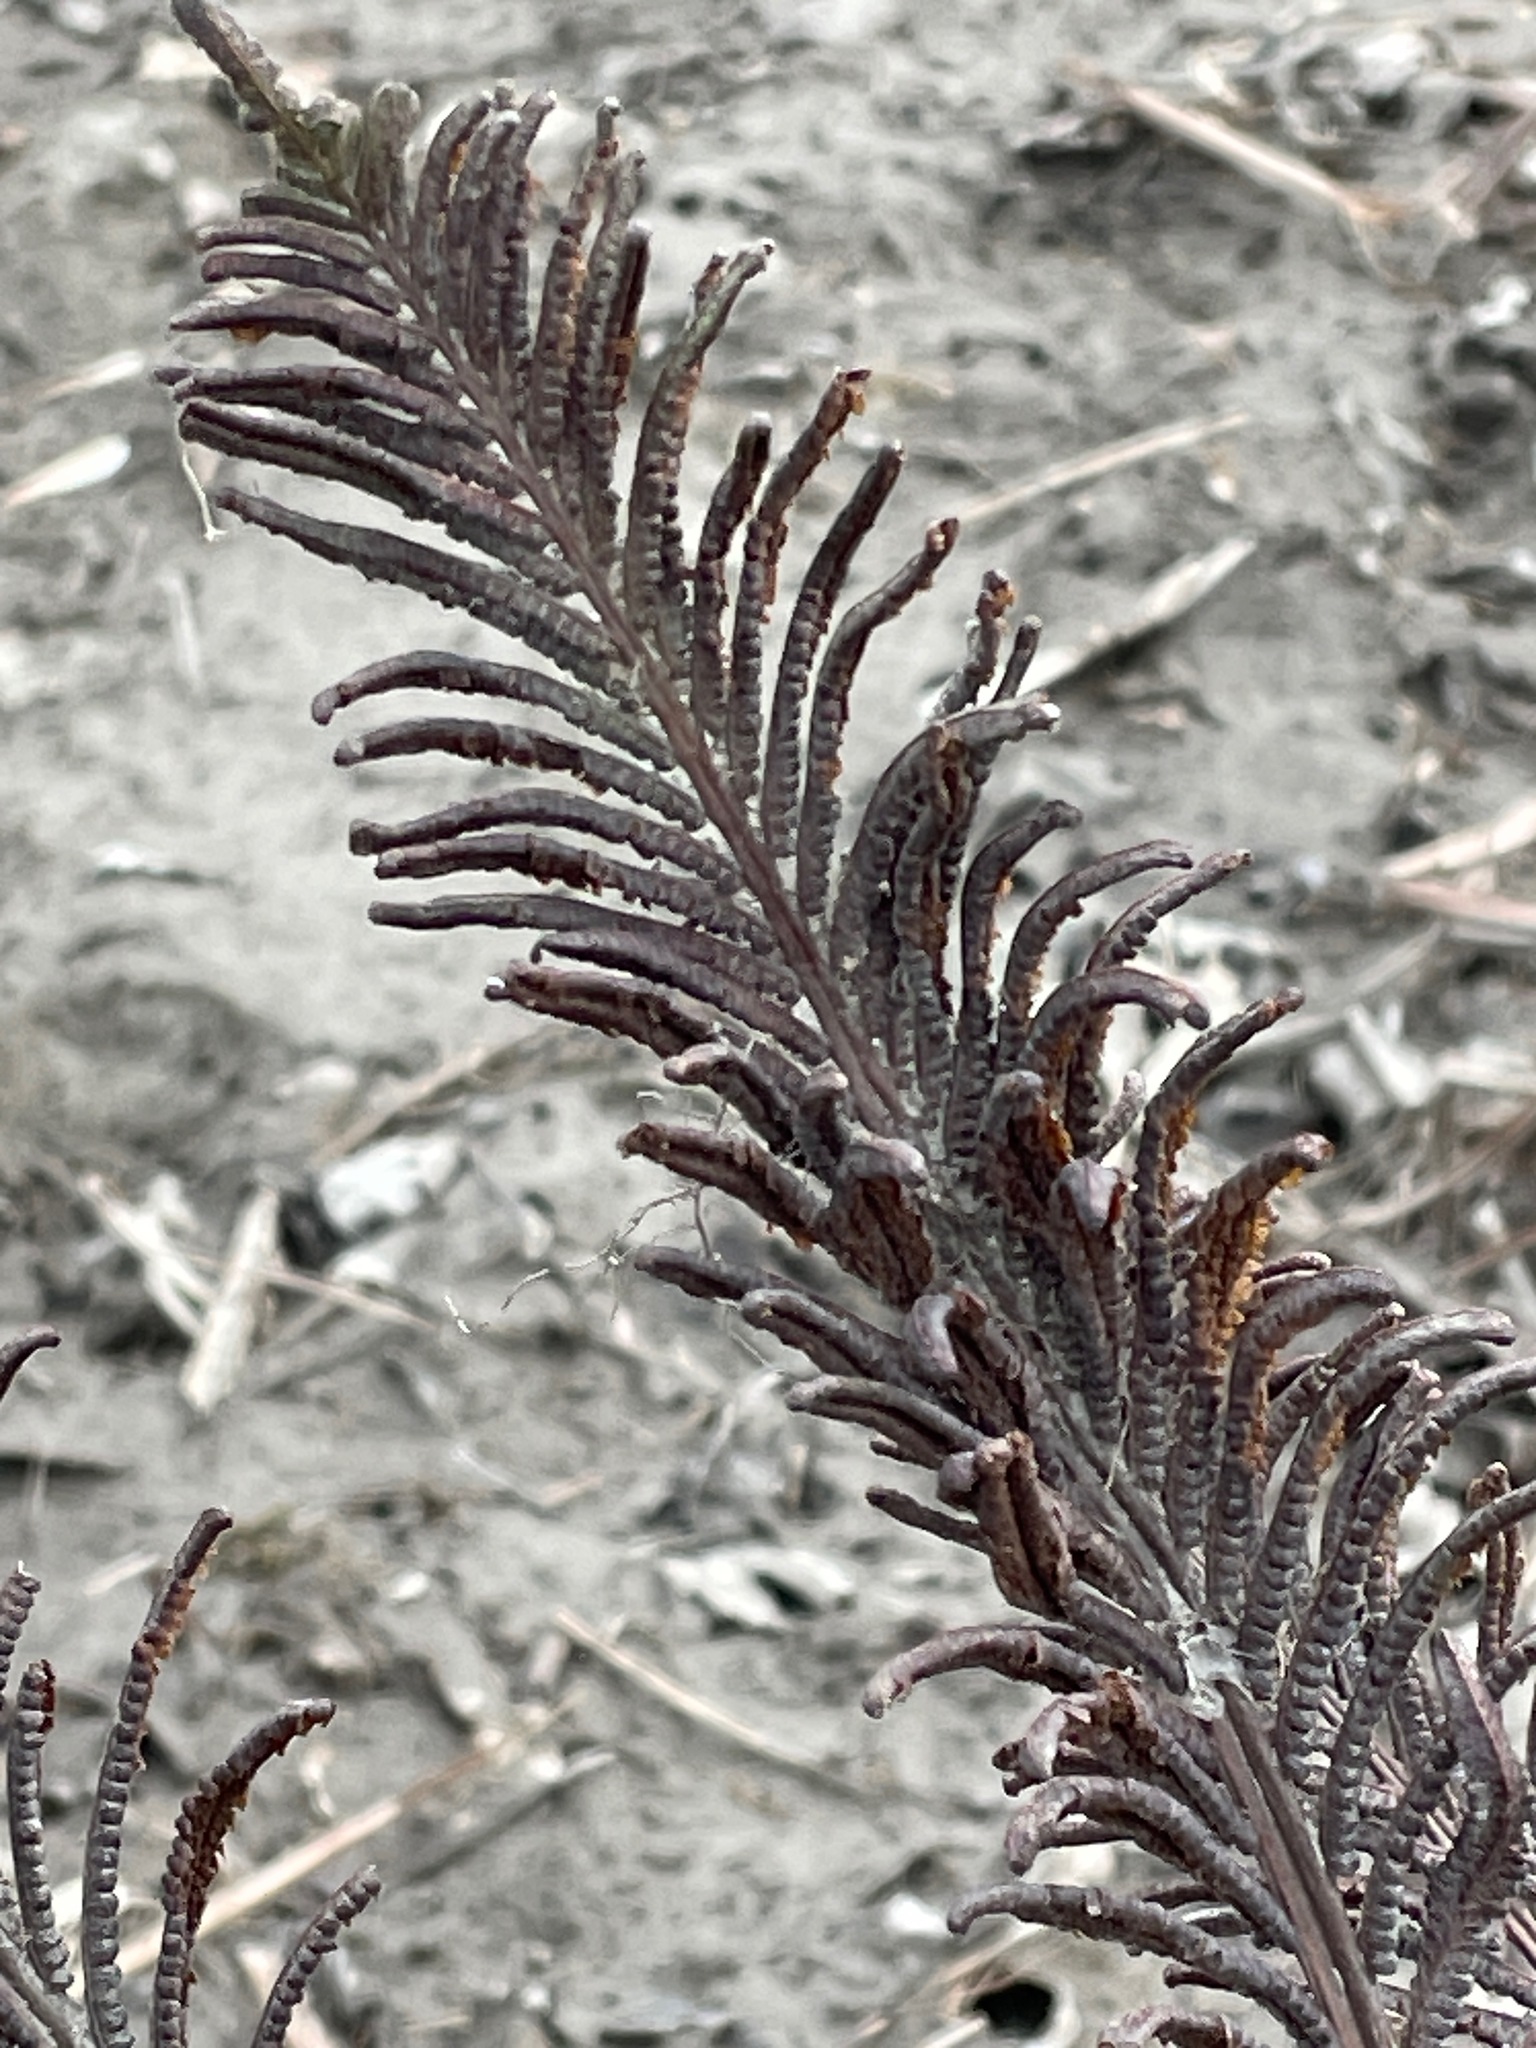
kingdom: Plantae
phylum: Tracheophyta
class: Polypodiopsida
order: Polypodiales
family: Onocleaceae
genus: Matteuccia
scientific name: Matteuccia struthiopteris
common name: Ostrich fern
